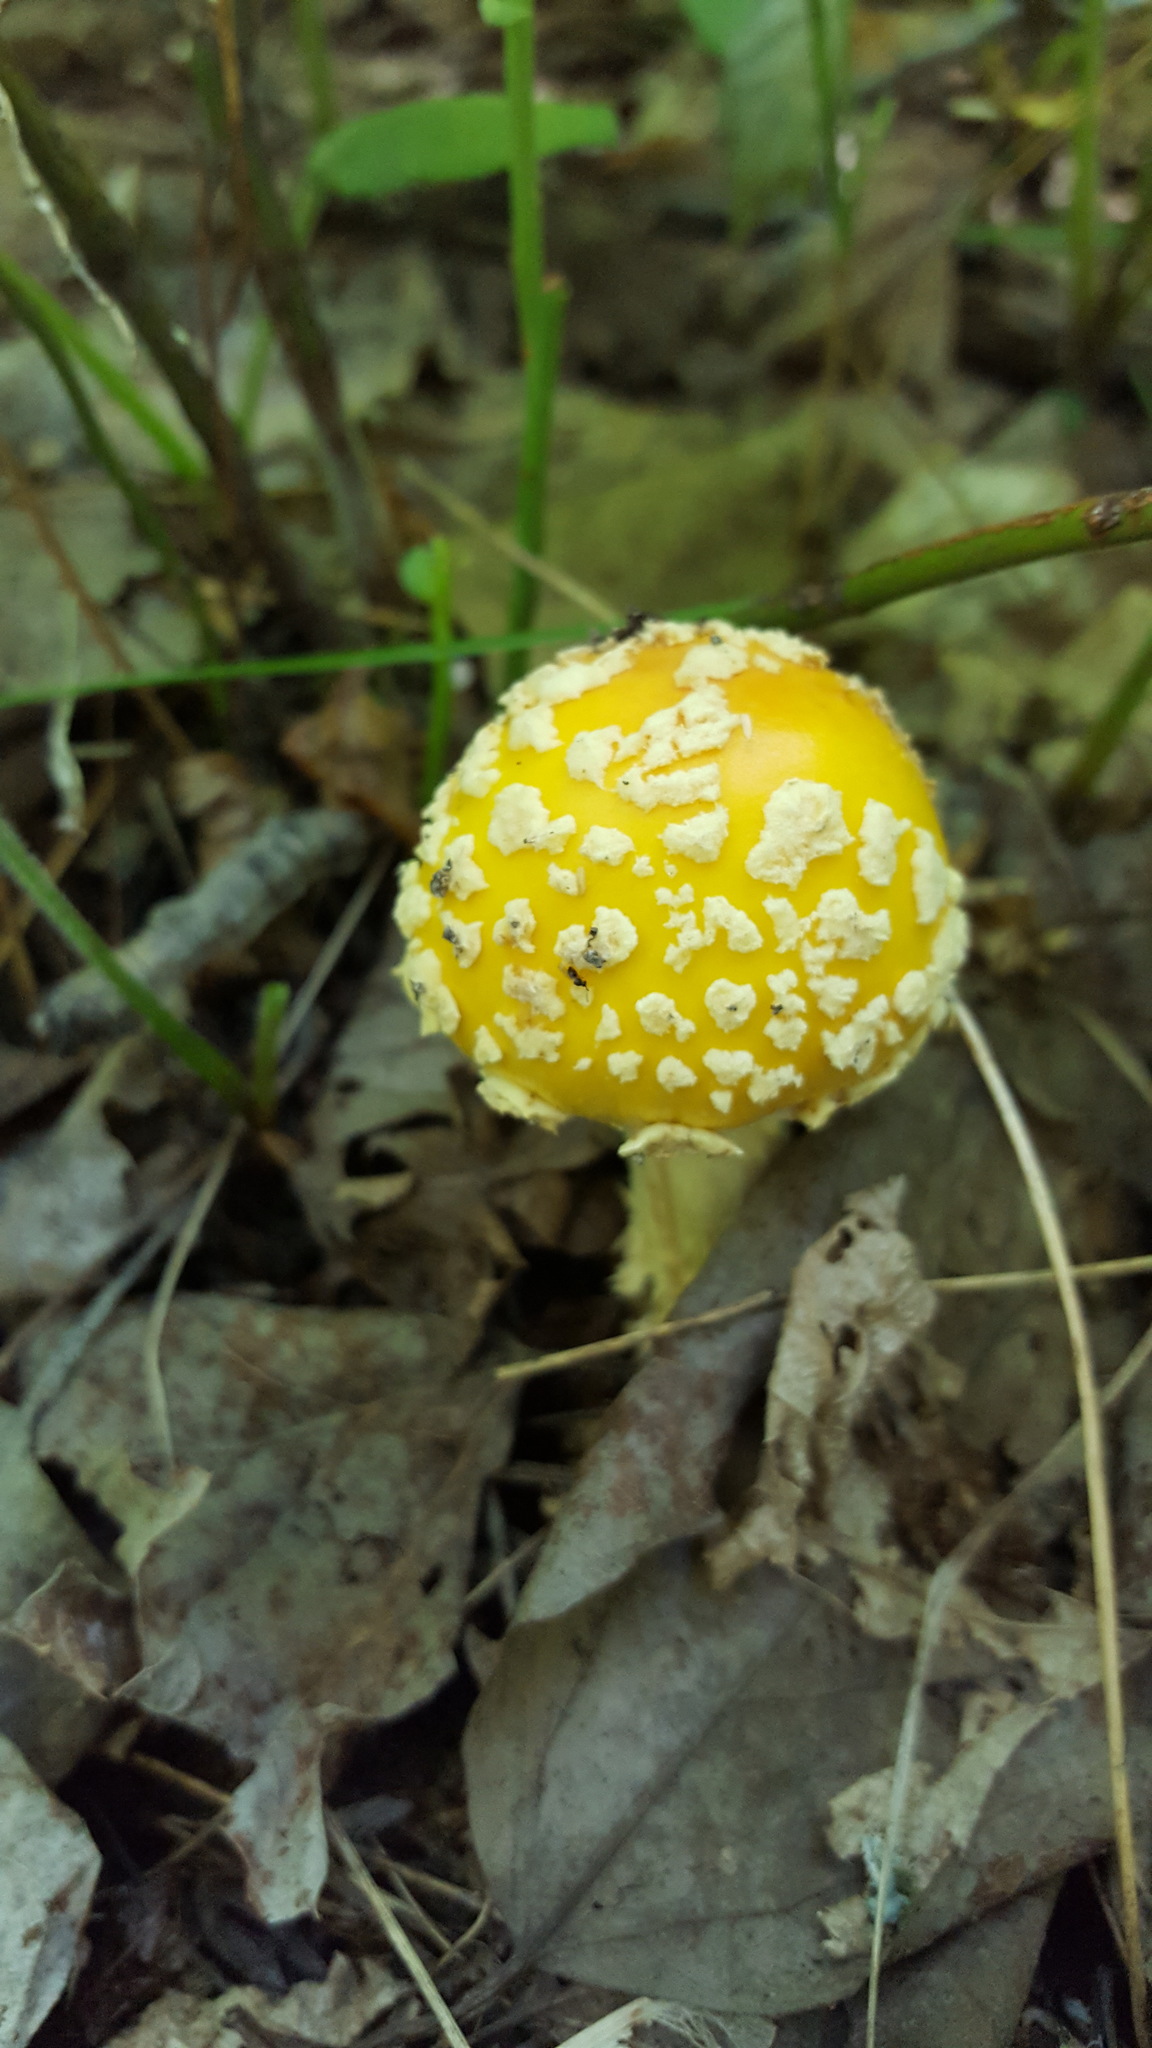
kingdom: Fungi
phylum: Basidiomycota
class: Agaricomycetes
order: Agaricales
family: Amanitaceae
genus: Amanita
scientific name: Amanita muscaria
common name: Fly agaric
